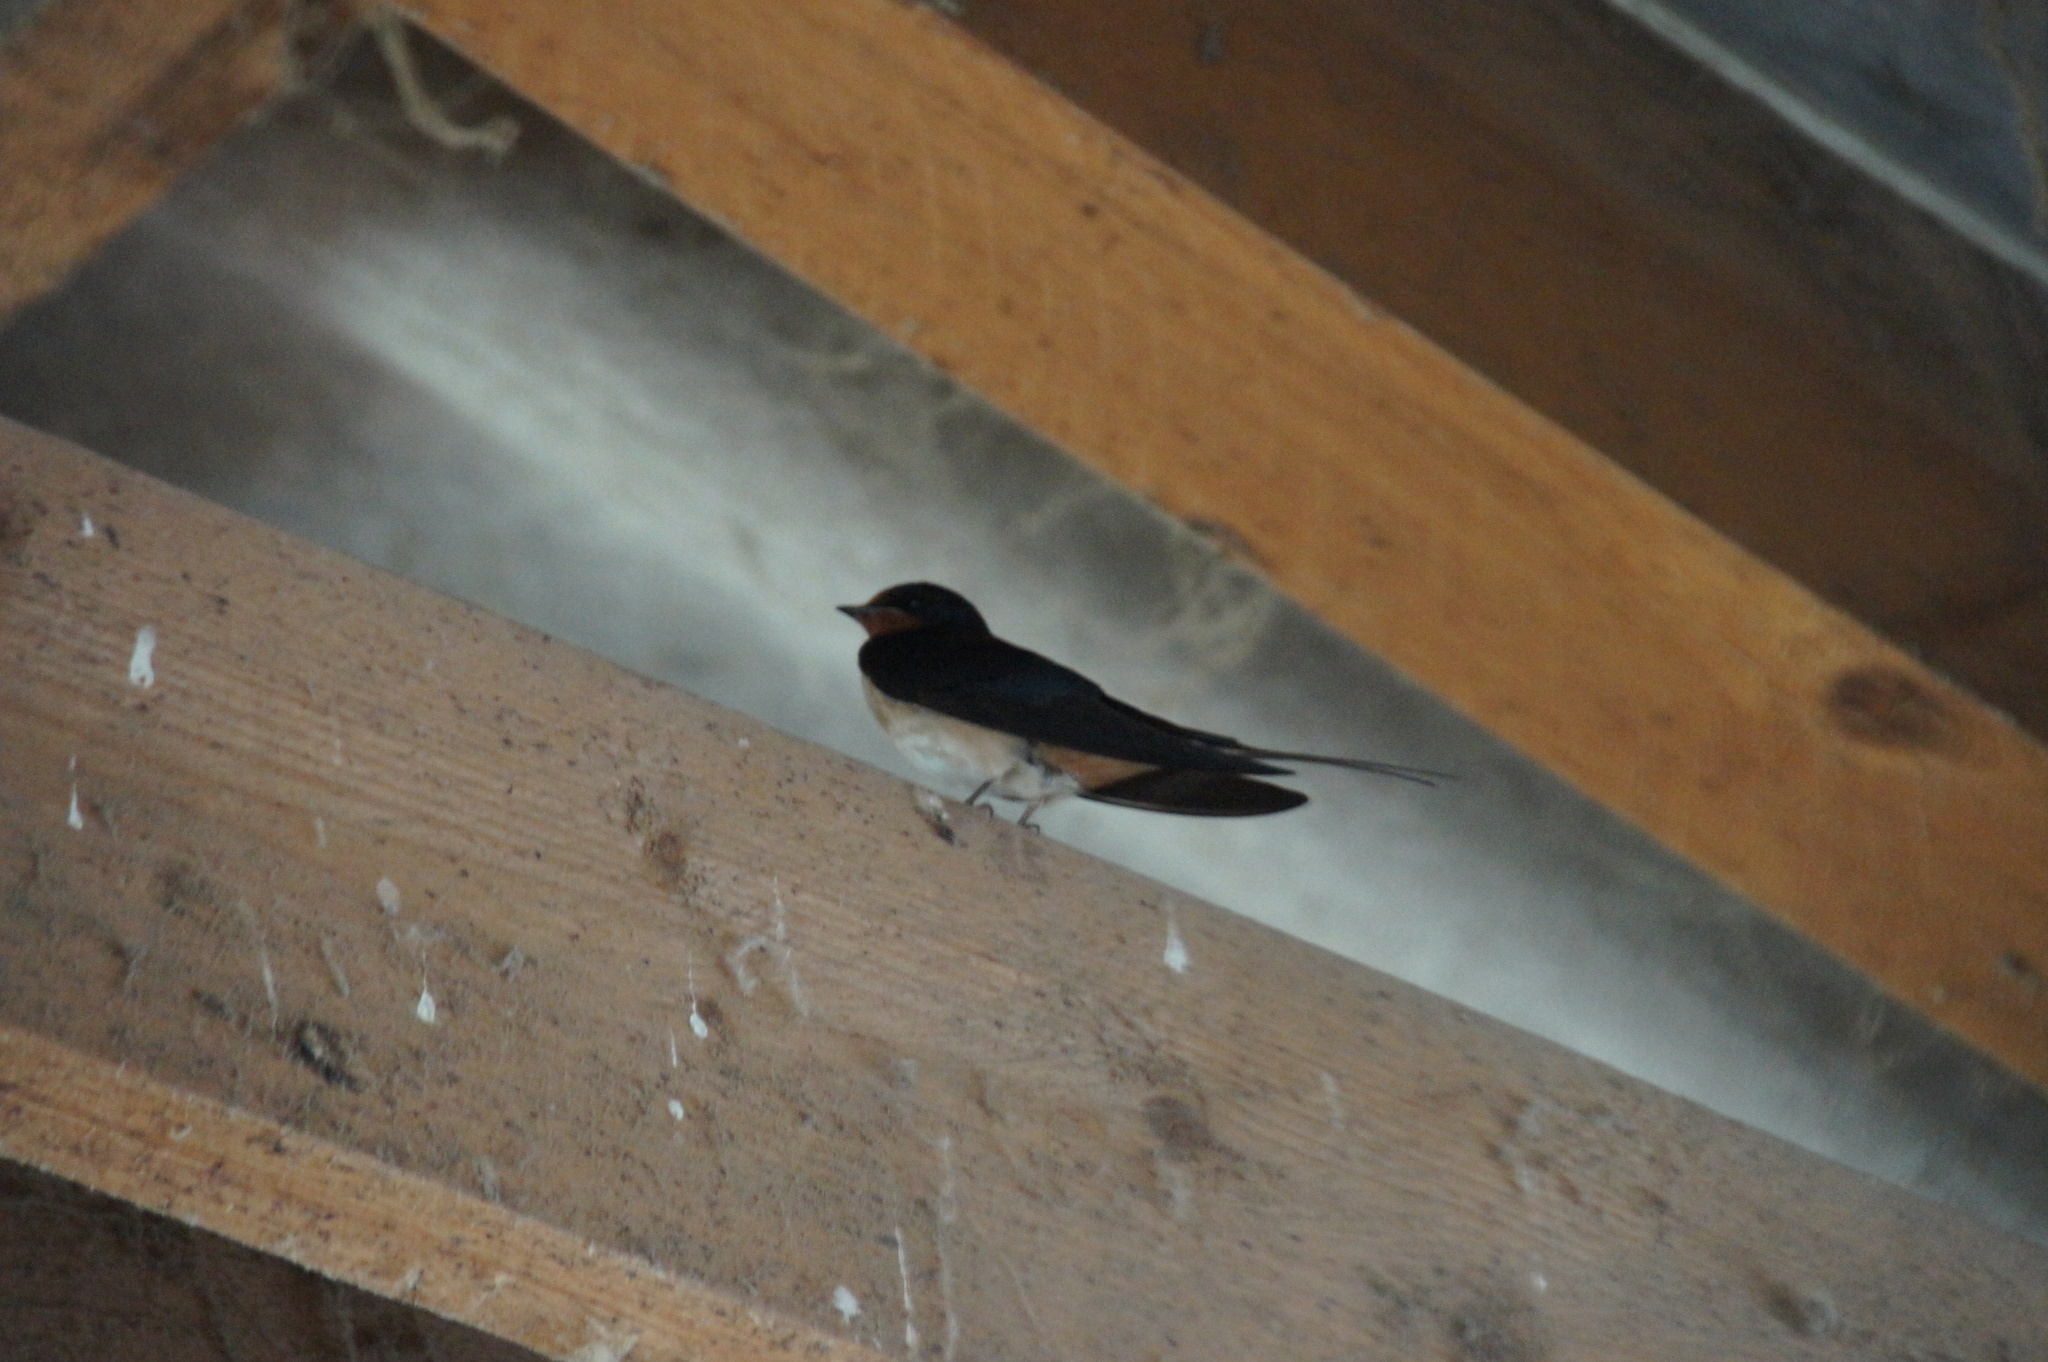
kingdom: Animalia
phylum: Chordata
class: Aves
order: Passeriformes
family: Hirundinidae
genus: Hirundo
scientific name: Hirundo rustica
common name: Barn swallow
